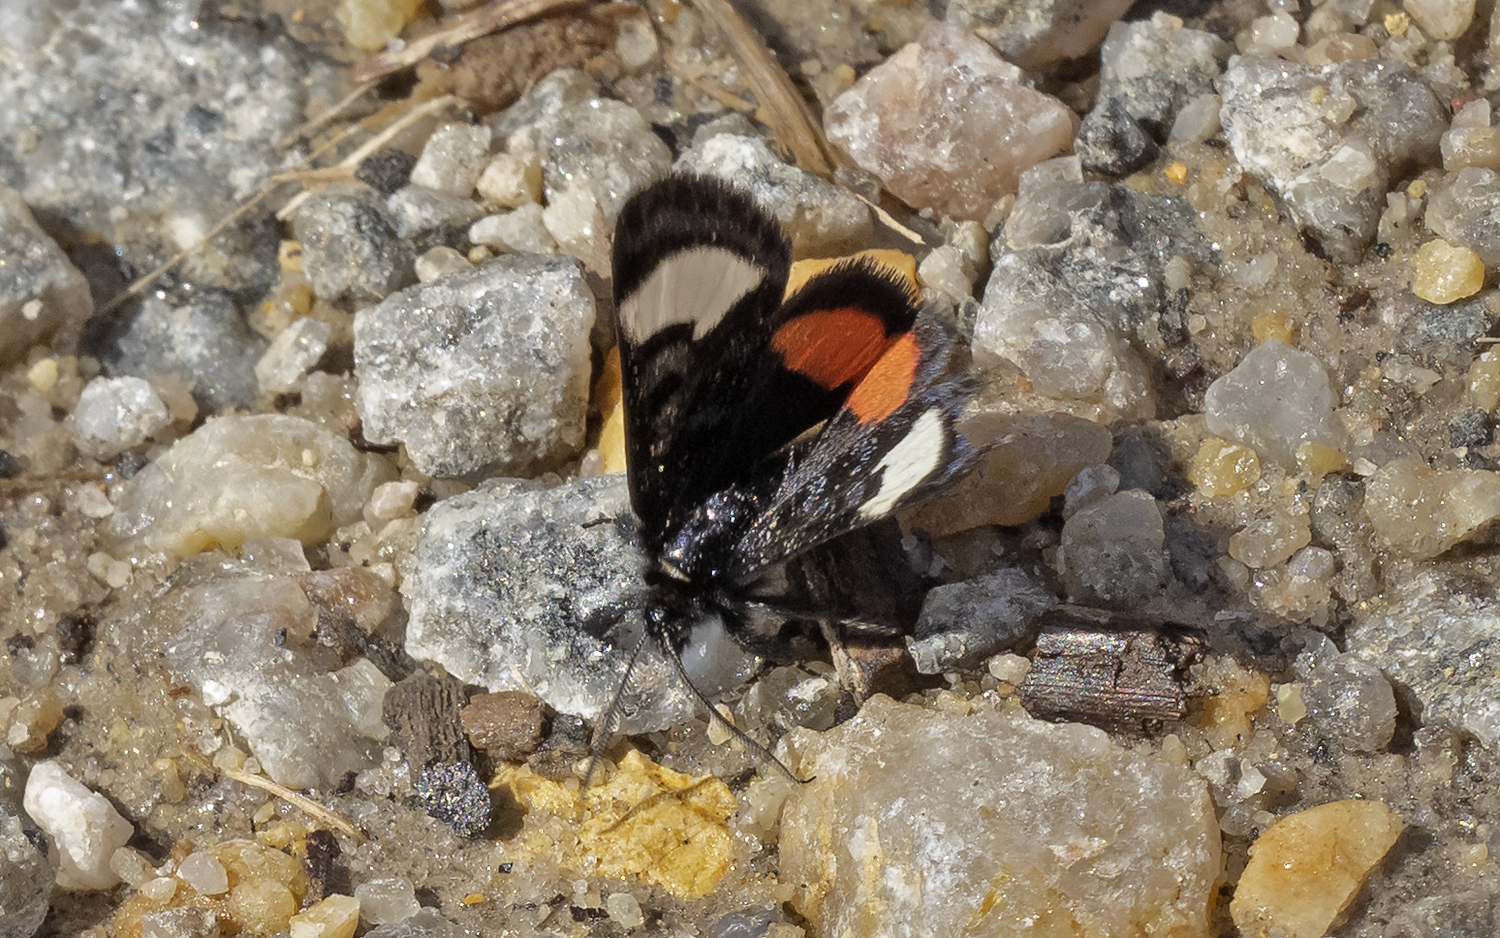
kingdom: Animalia
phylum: Arthropoda
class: Insecta
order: Lepidoptera
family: Noctuidae
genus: Psychomorpha
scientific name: Psychomorpha epimenis
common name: Grapevine epimenis moth
